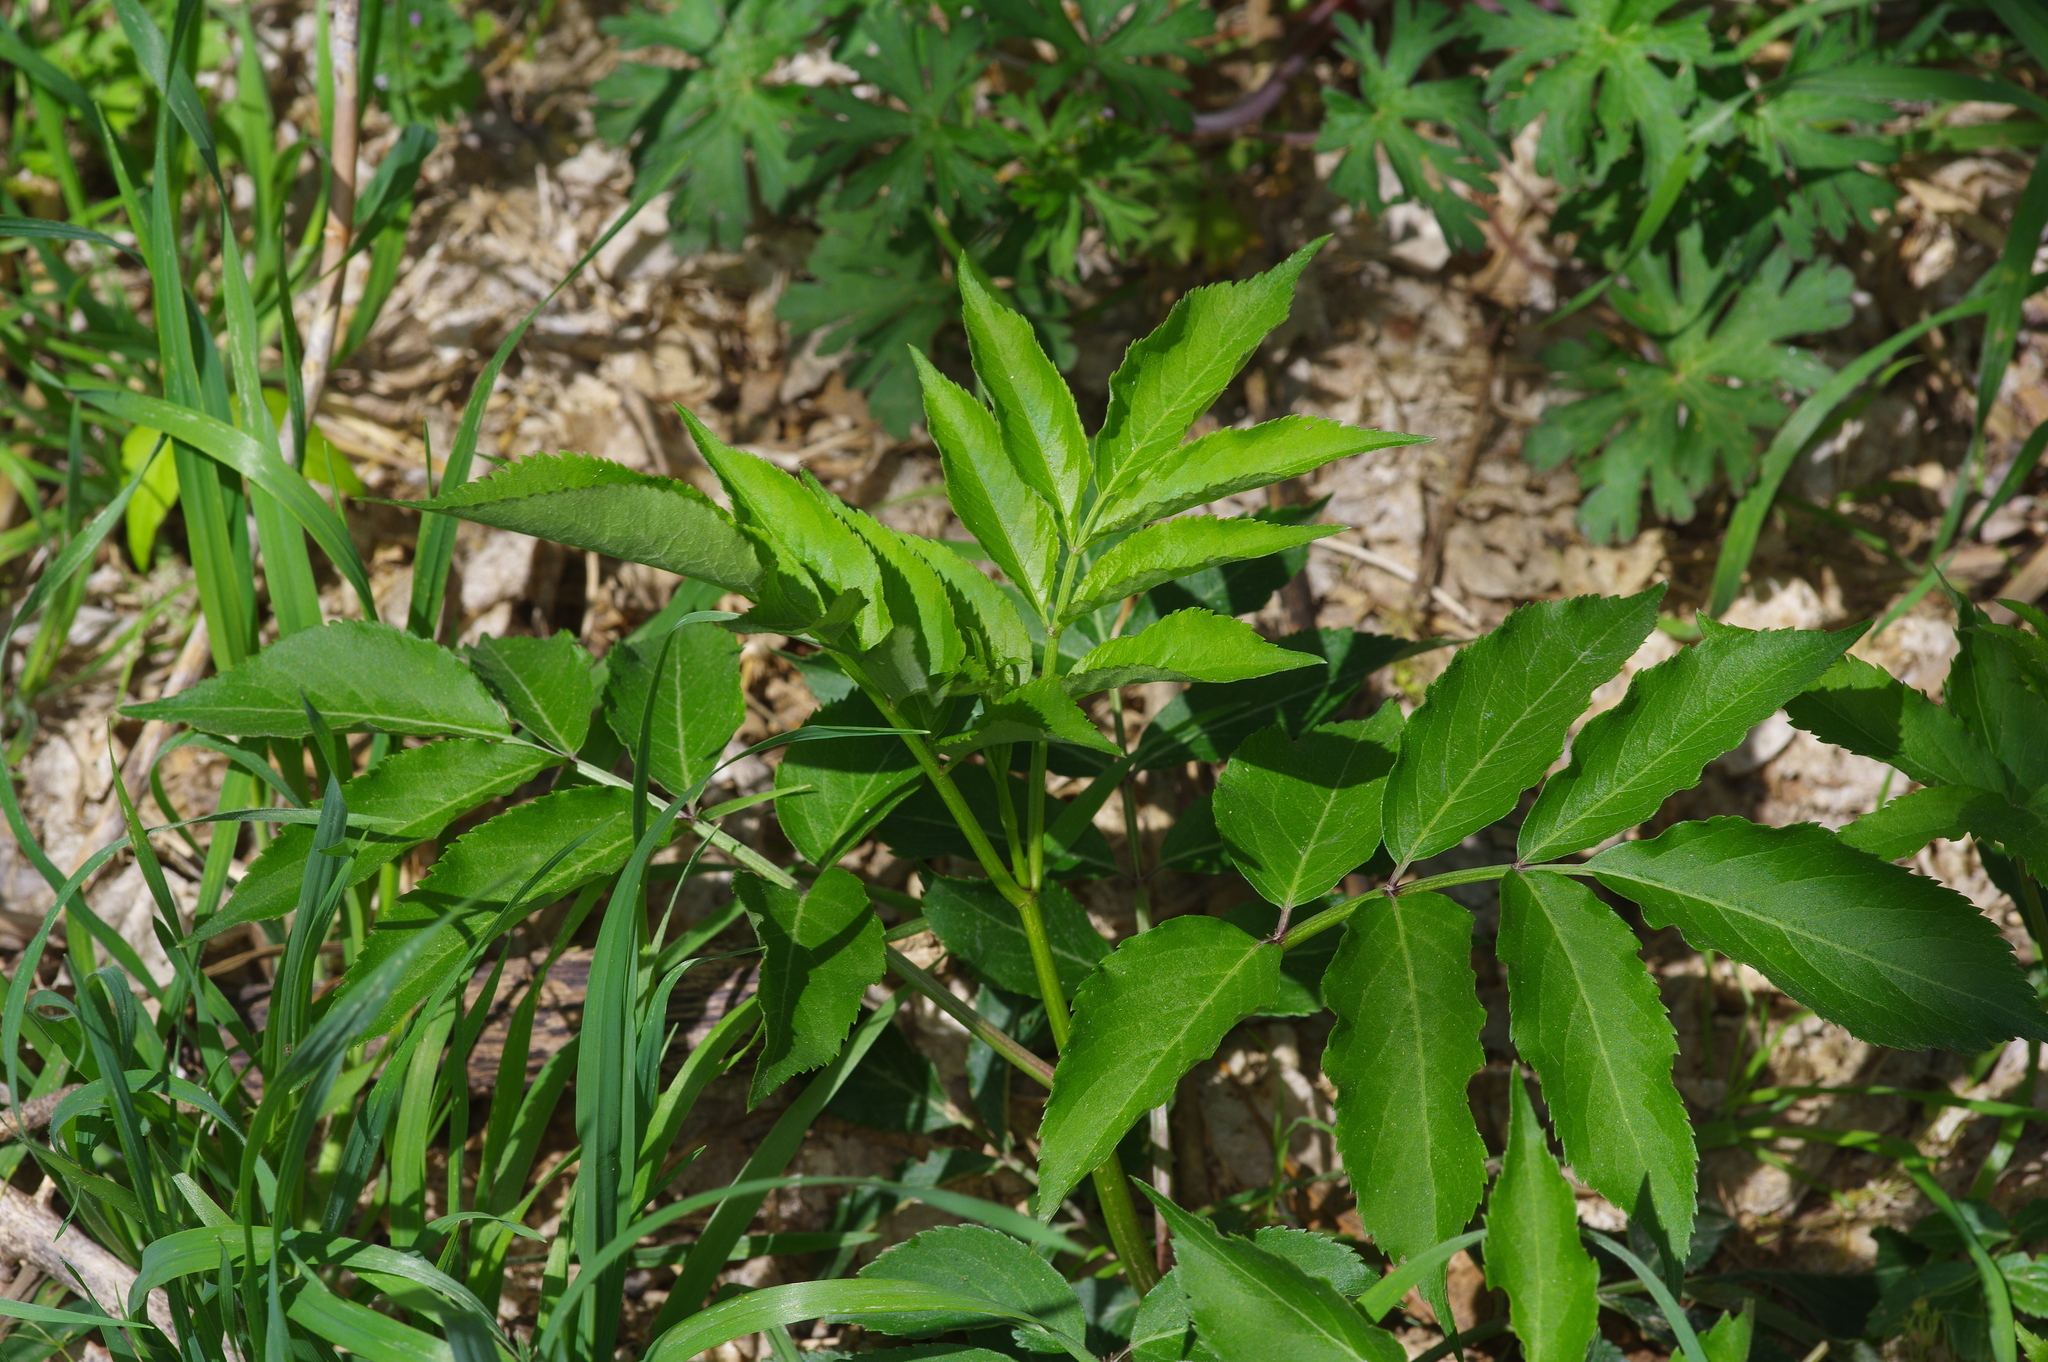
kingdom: Plantae
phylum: Tracheophyta
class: Magnoliopsida
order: Dipsacales
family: Viburnaceae
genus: Sambucus
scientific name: Sambucus canadensis
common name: American elder
